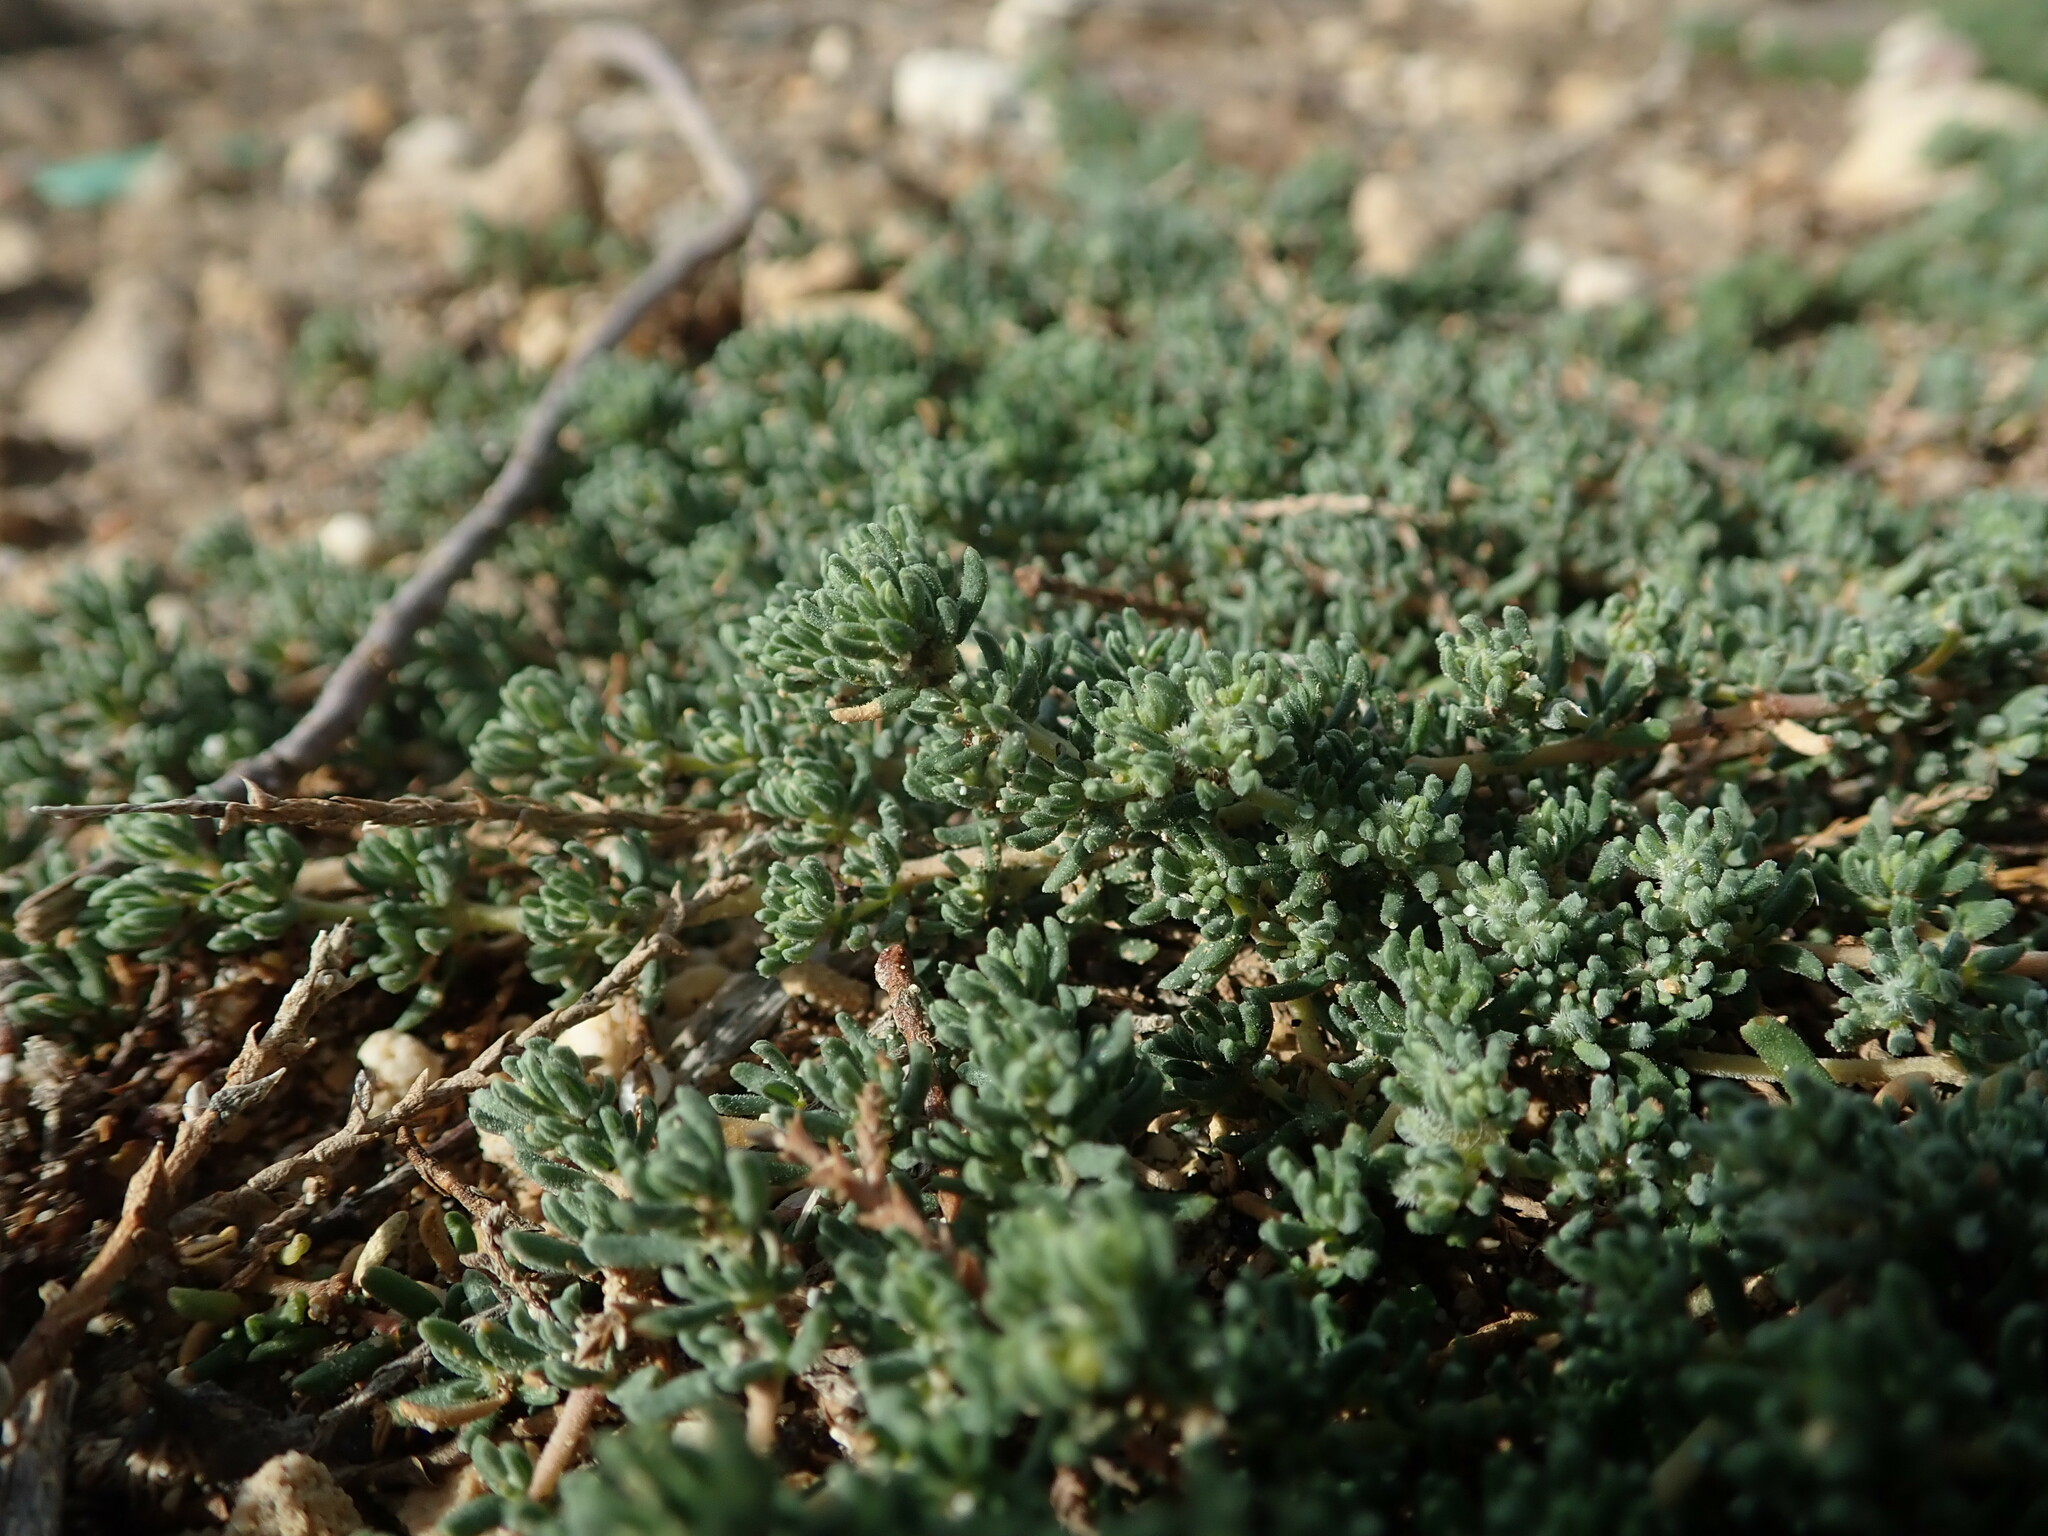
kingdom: Plantae
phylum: Tracheophyta
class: Magnoliopsida
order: Caryophyllales
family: Frankeniaceae
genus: Frankenia
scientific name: Frankenia hirsuta
